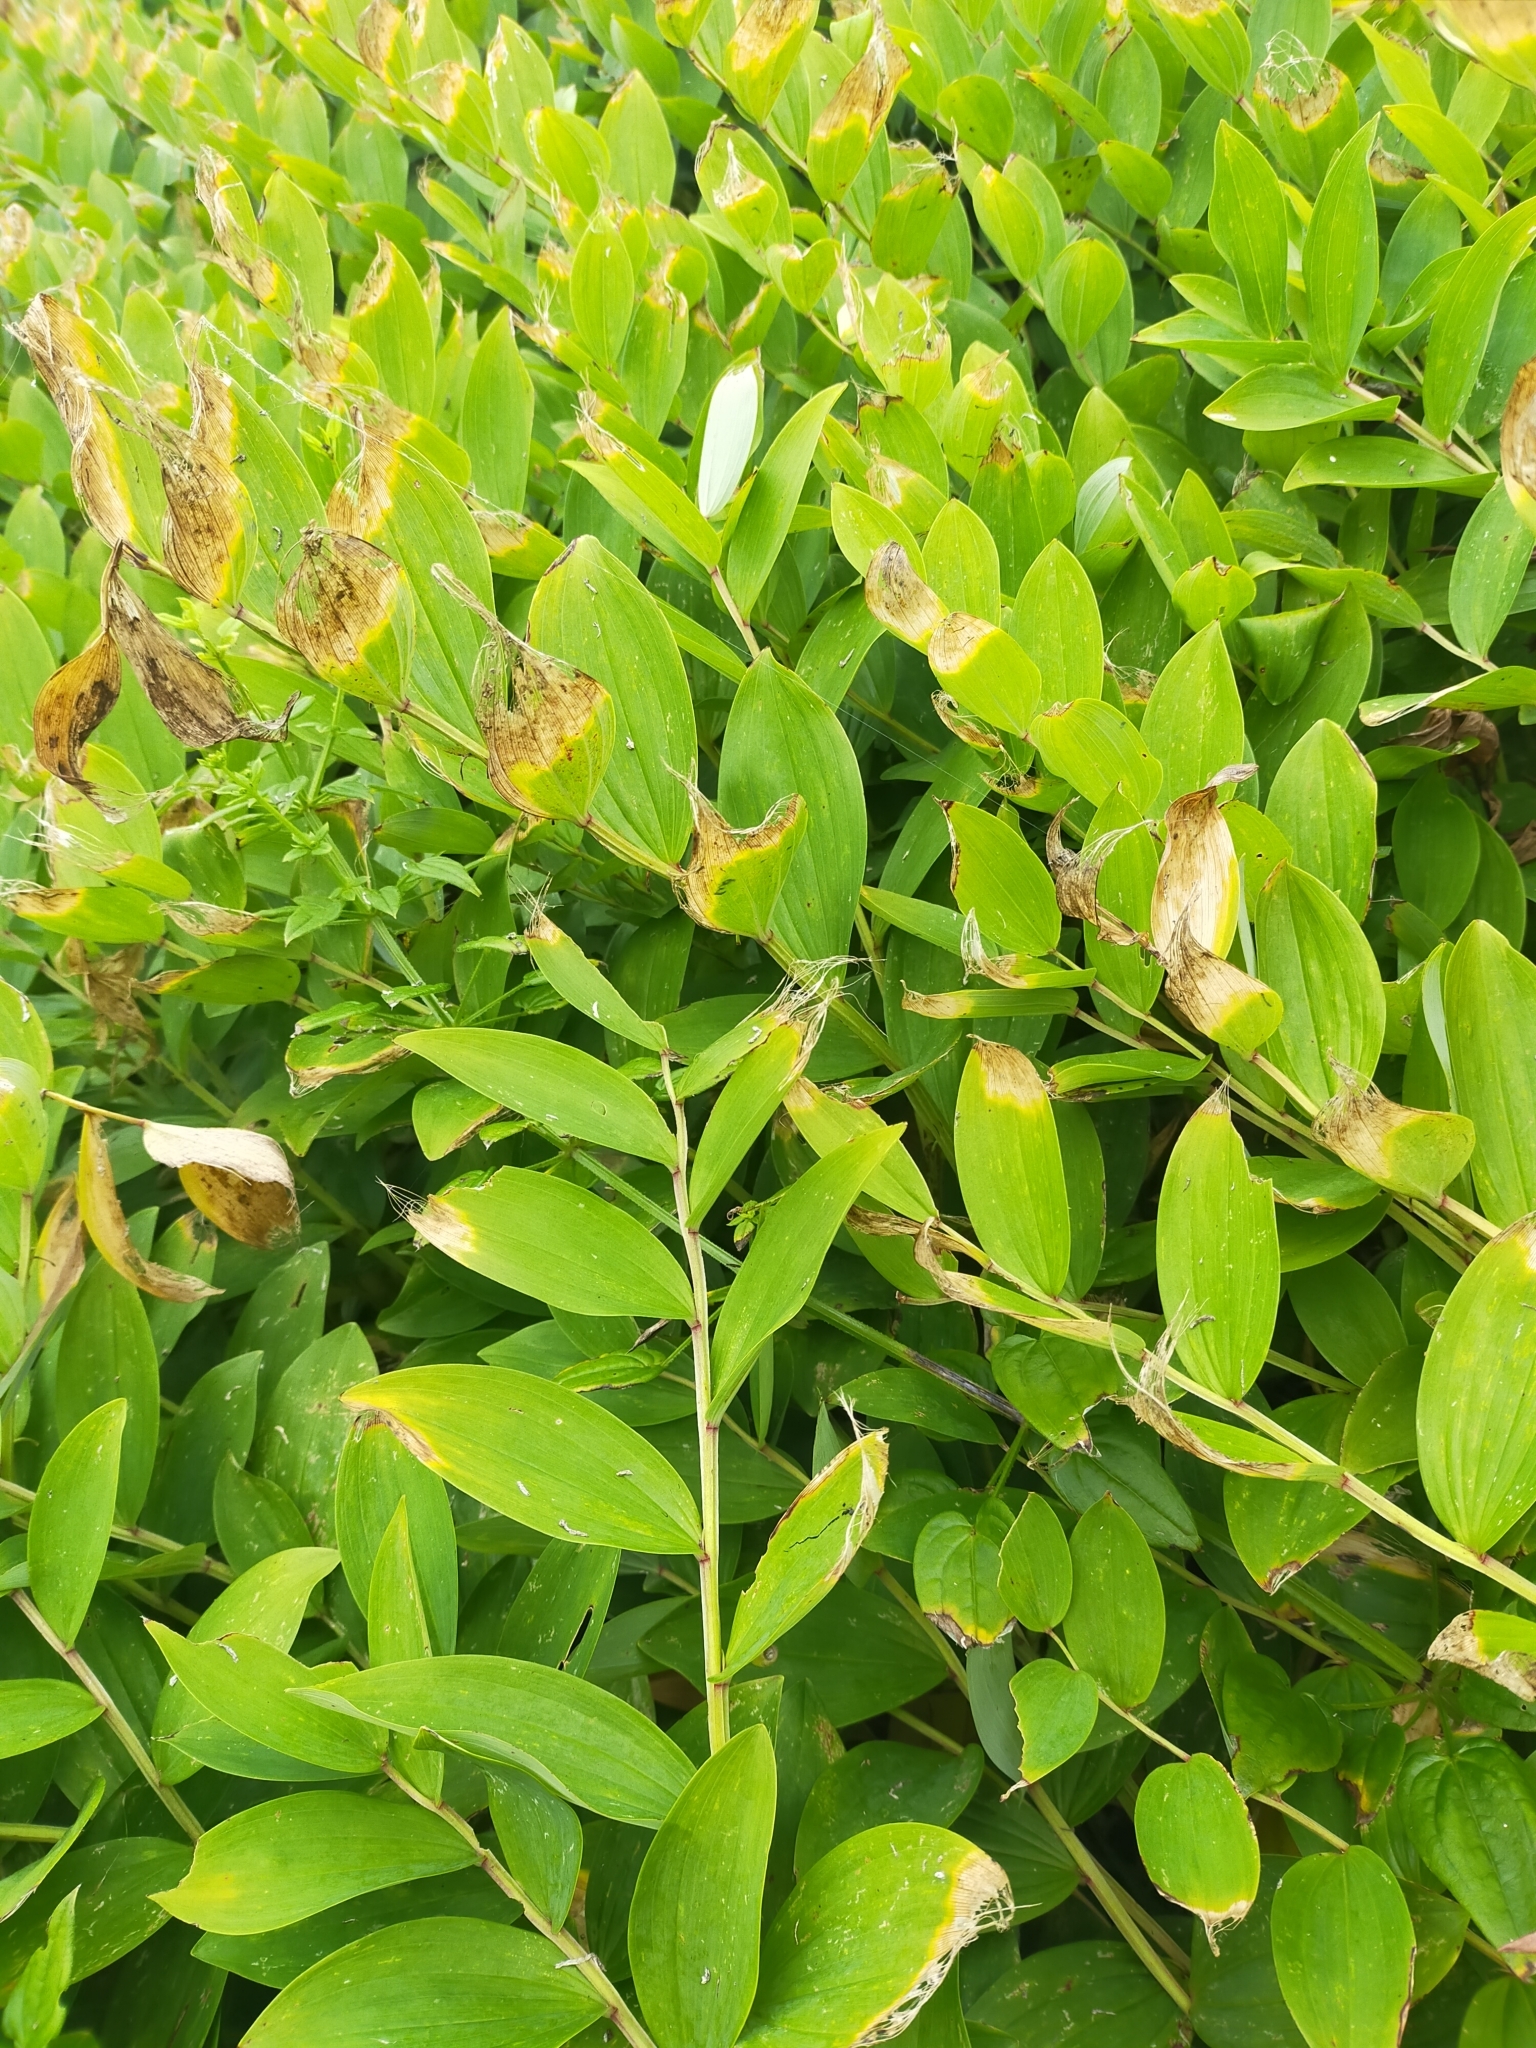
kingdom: Plantae
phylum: Tracheophyta
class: Liliopsida
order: Asparagales
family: Asparagaceae
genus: Polygonatum
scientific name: Polygonatum odoratum
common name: Angular solomon's-seal
